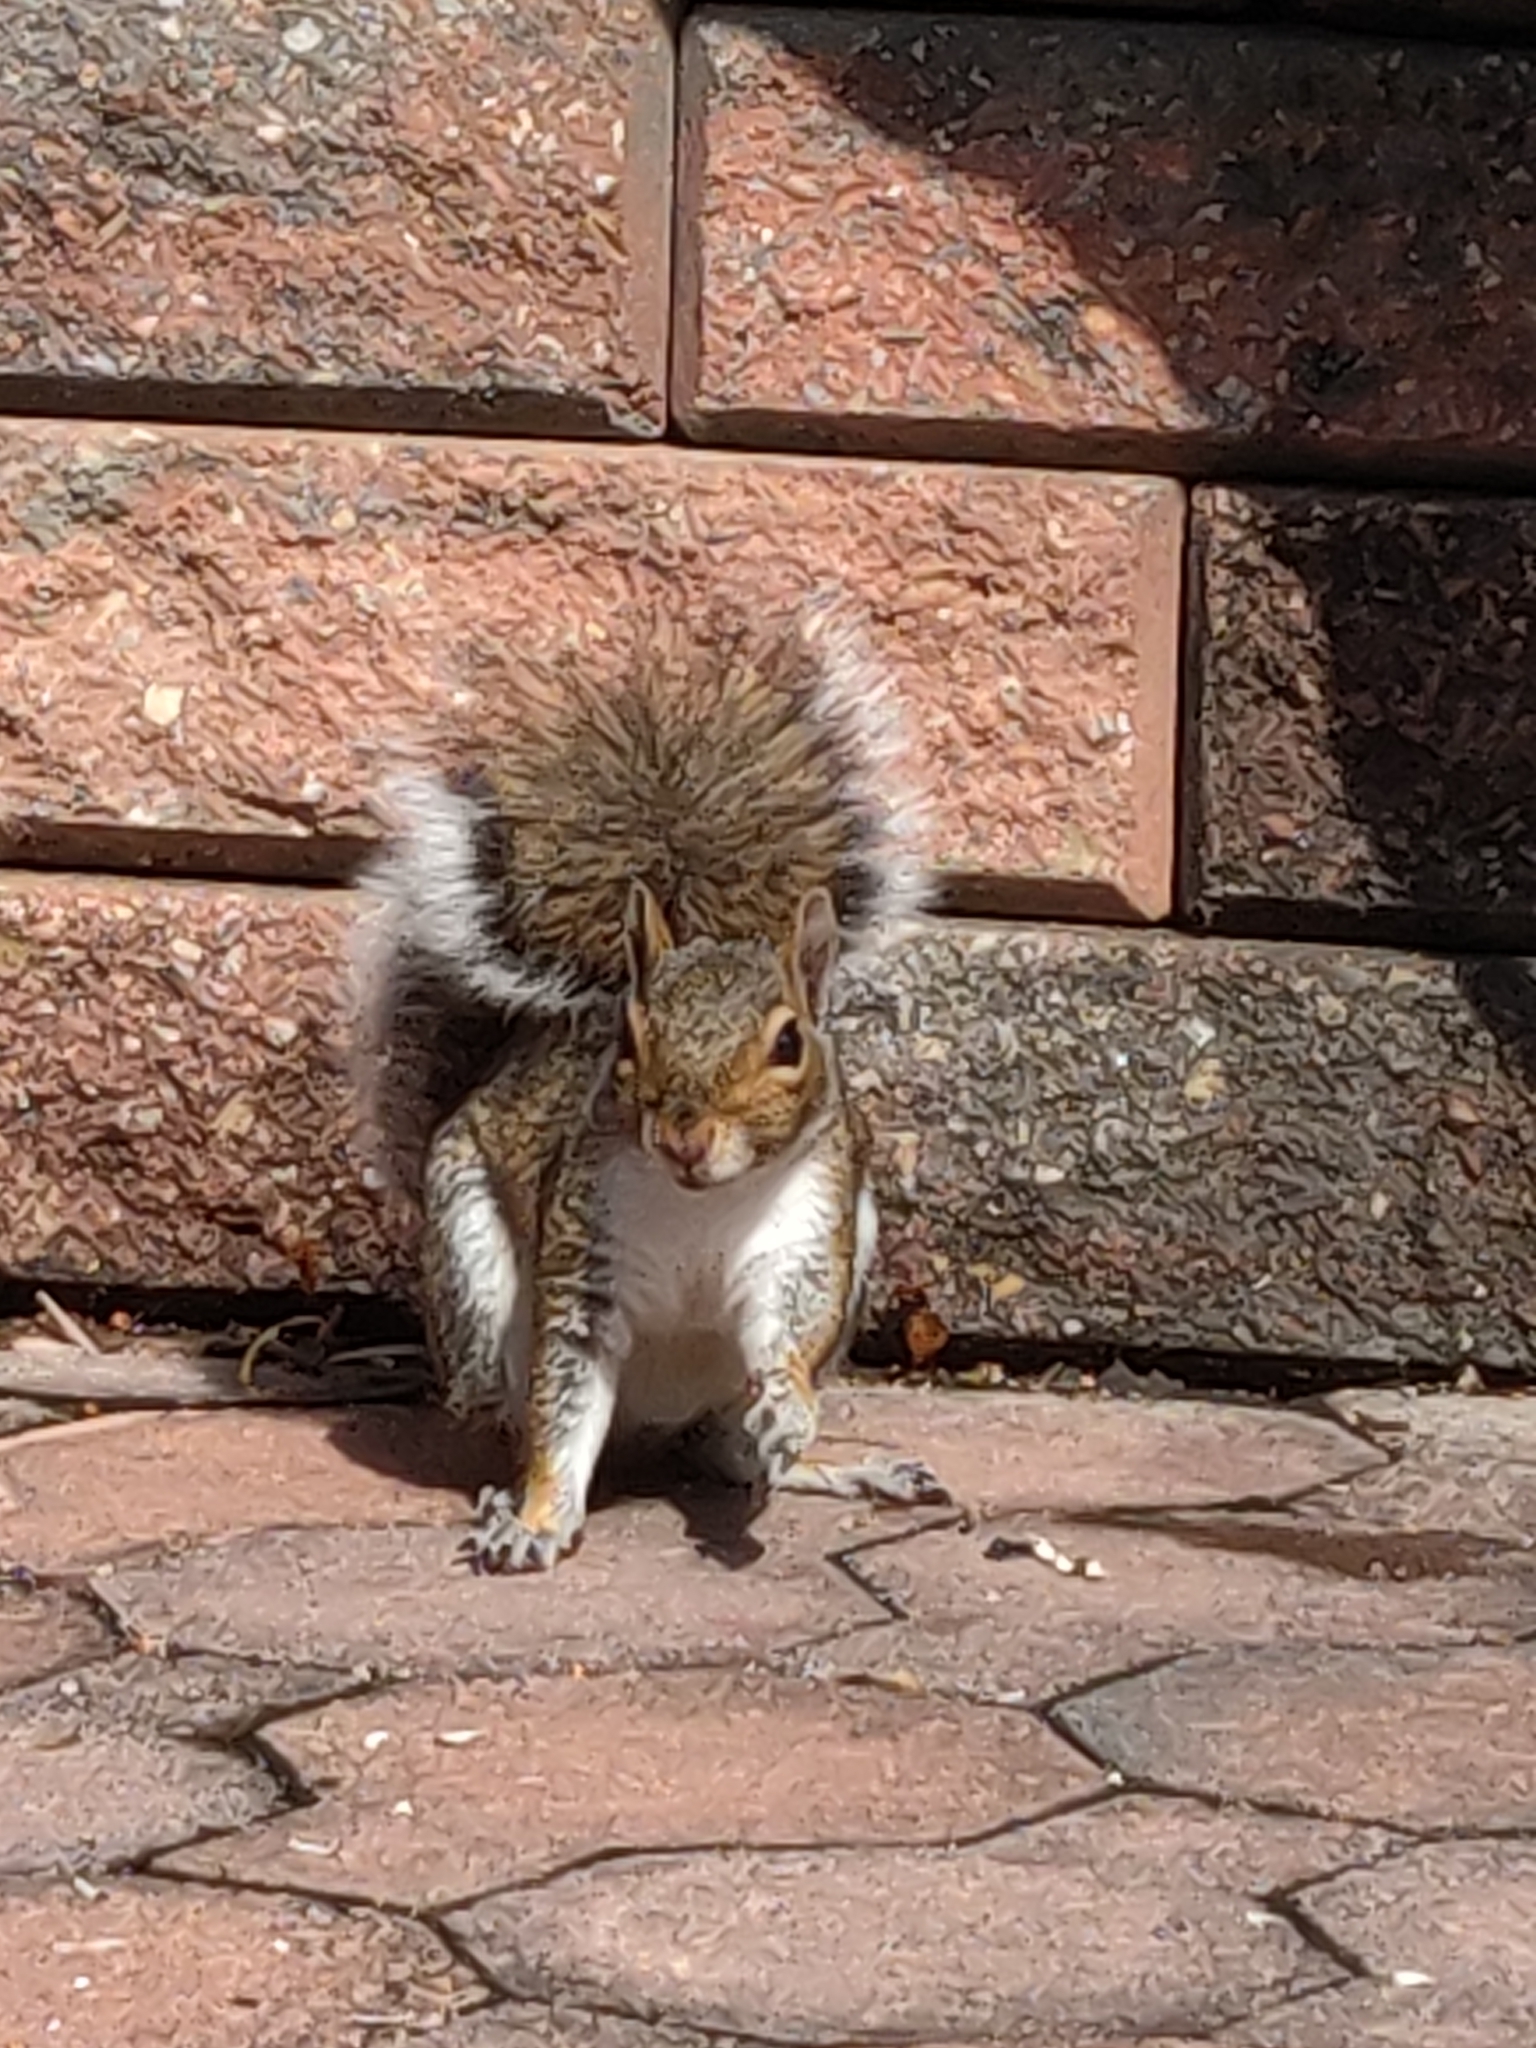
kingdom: Animalia
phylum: Chordata
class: Mammalia
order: Rodentia
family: Sciuridae
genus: Sciurus
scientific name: Sciurus carolinensis
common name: Eastern gray squirrel
